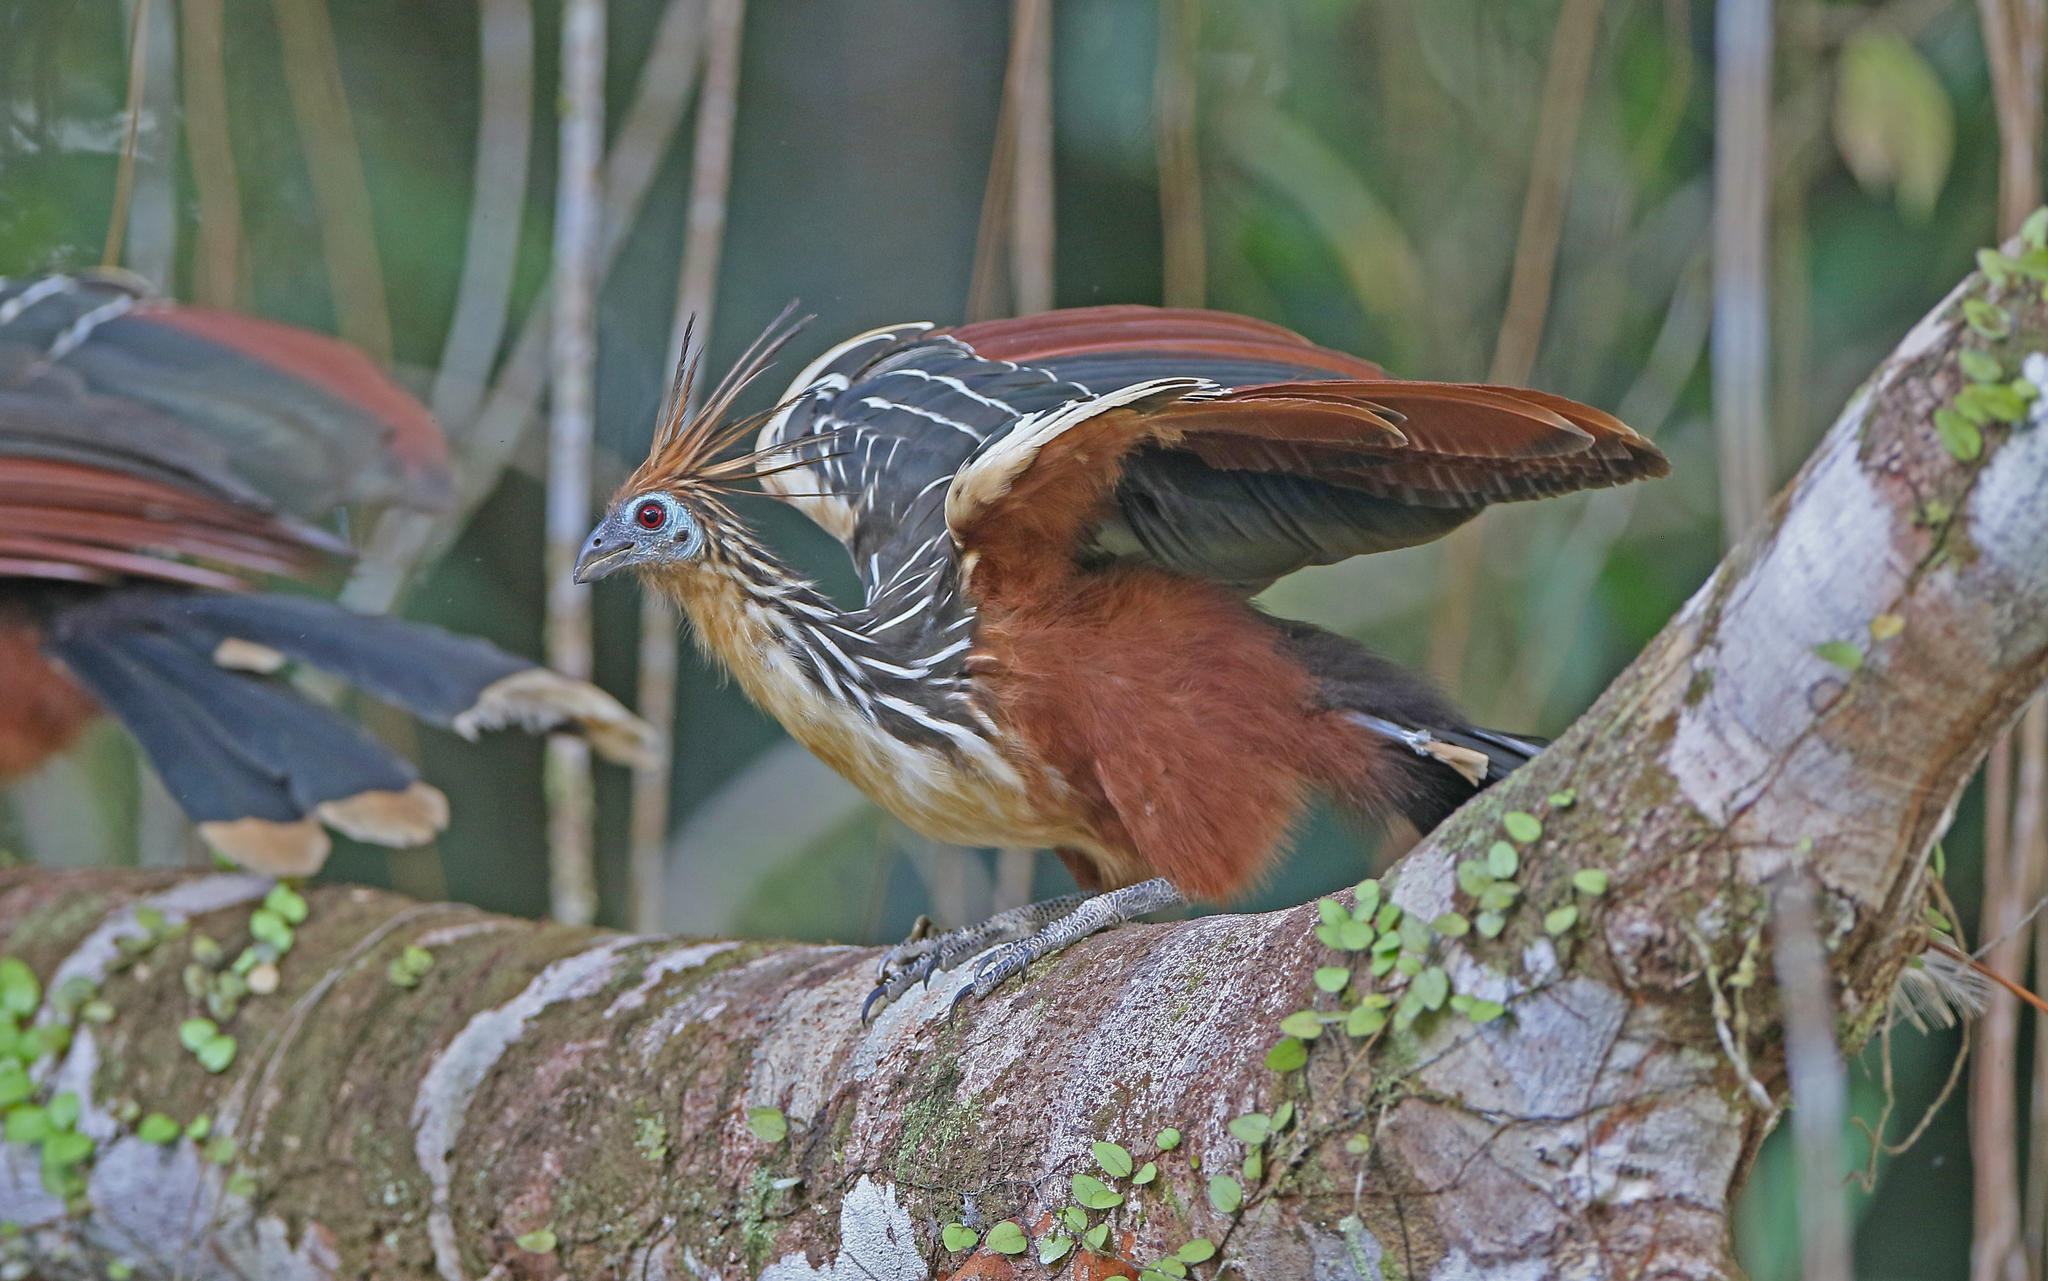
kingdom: Animalia
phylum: Chordata
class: Aves
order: Opisthocomiformes
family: Opisthocomidae
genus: Opisthocomus
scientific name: Opisthocomus hoazin
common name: Hoatzin
